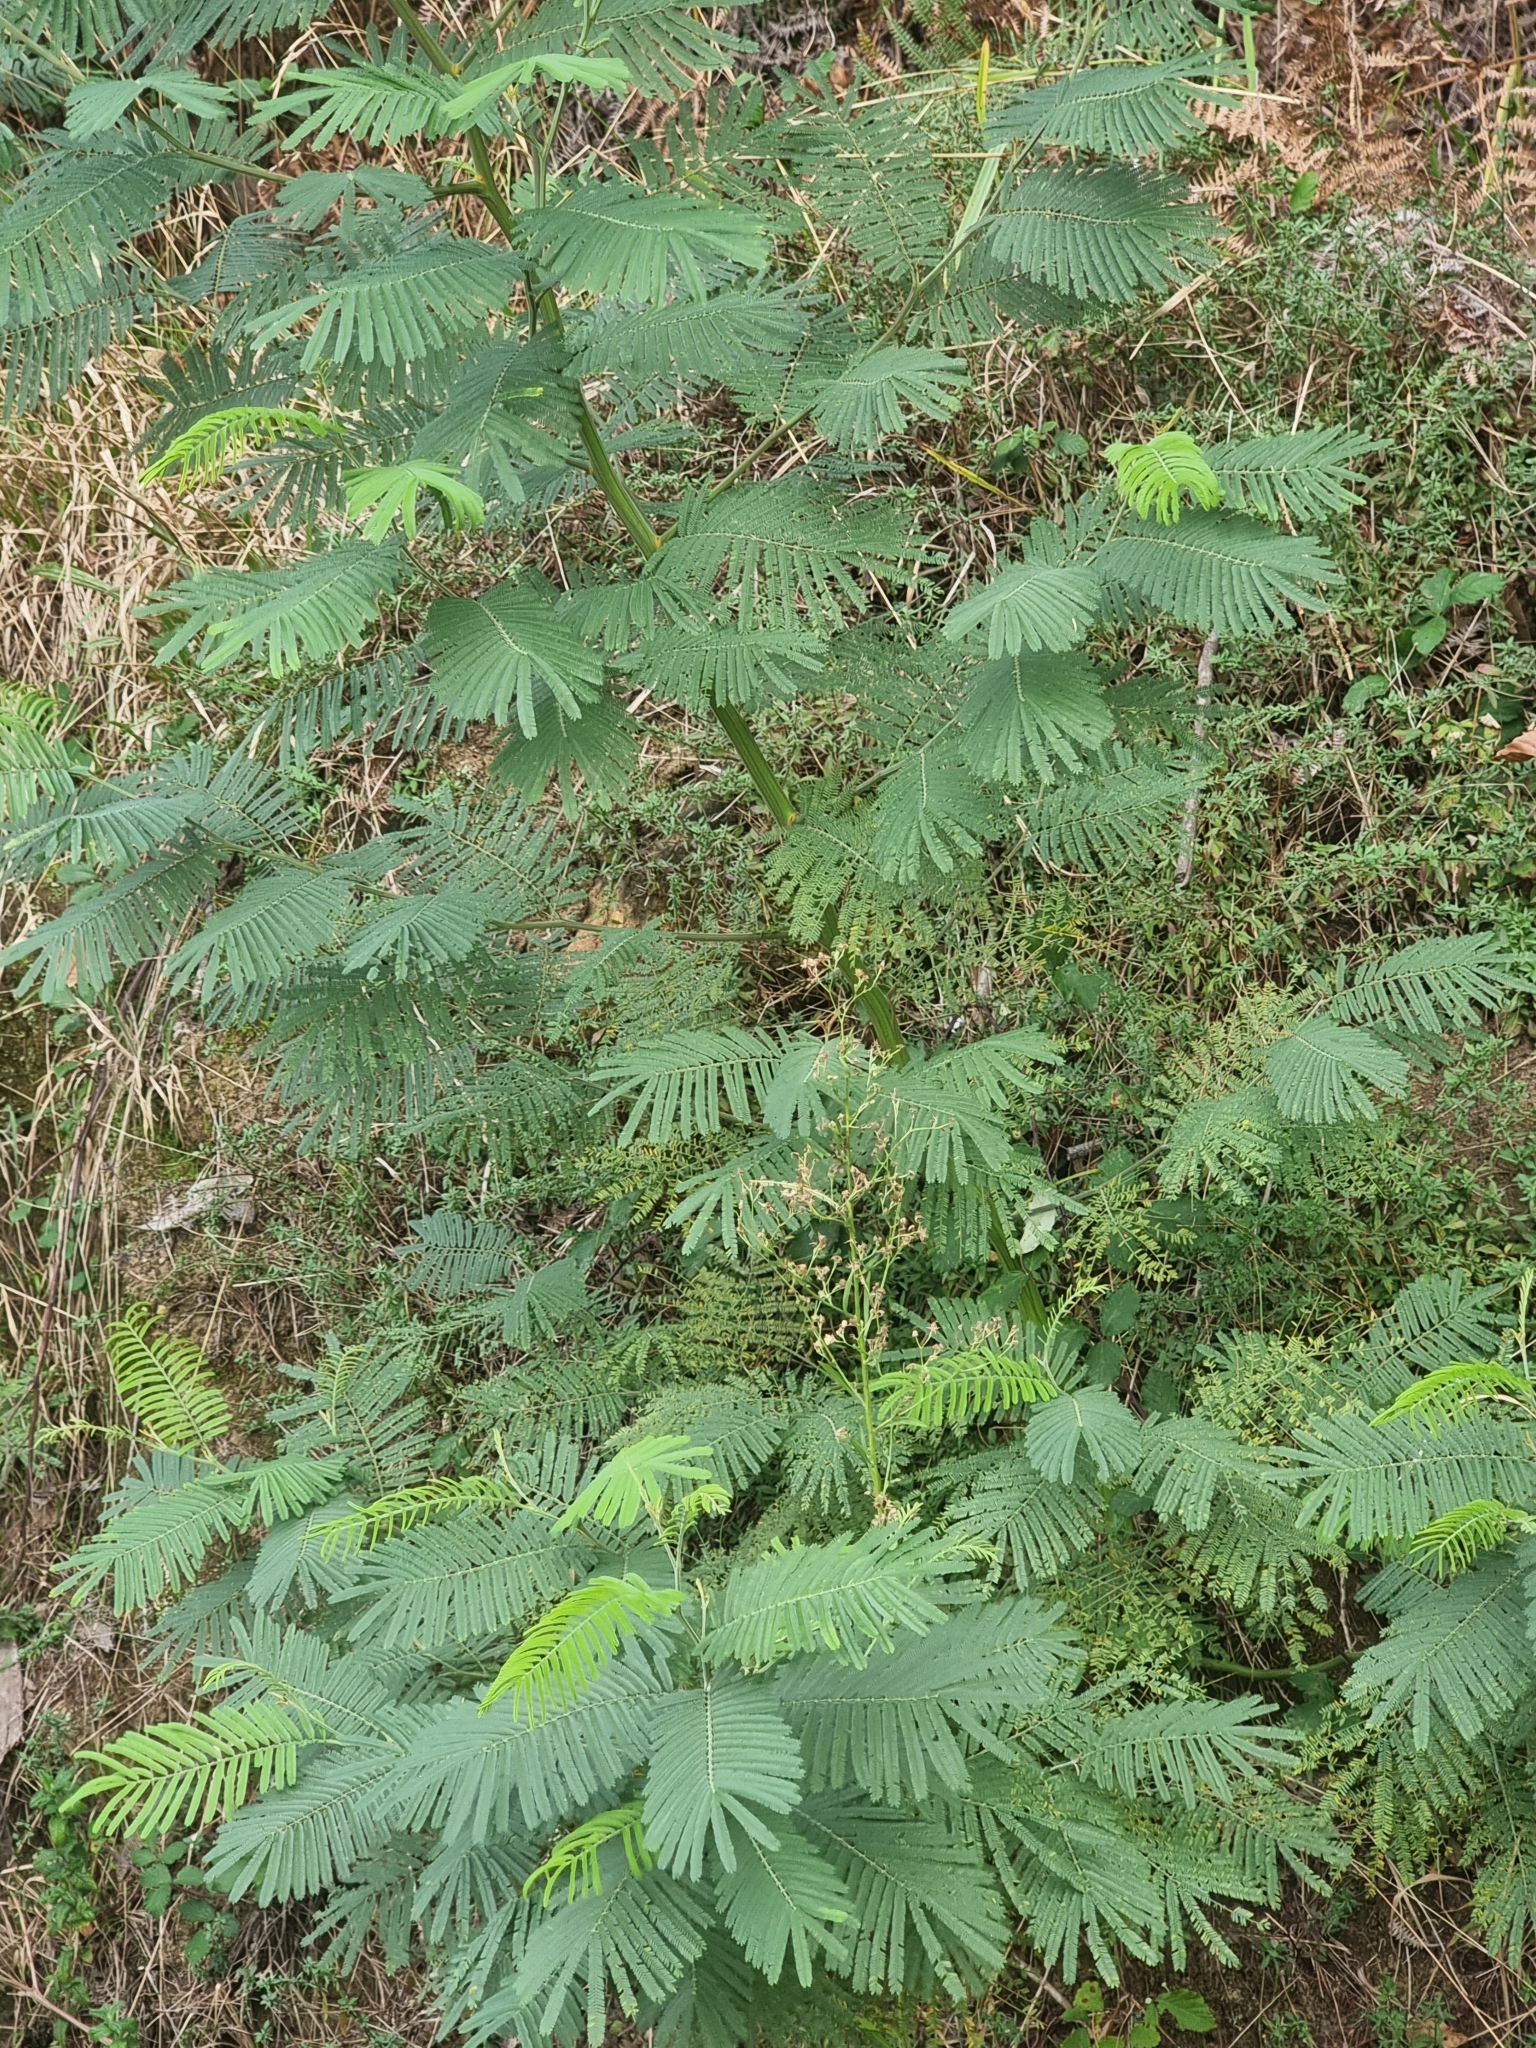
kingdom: Plantae
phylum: Tracheophyta
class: Magnoliopsida
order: Fabales
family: Fabaceae
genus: Acacia
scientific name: Acacia mearnsii
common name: Black wattle
